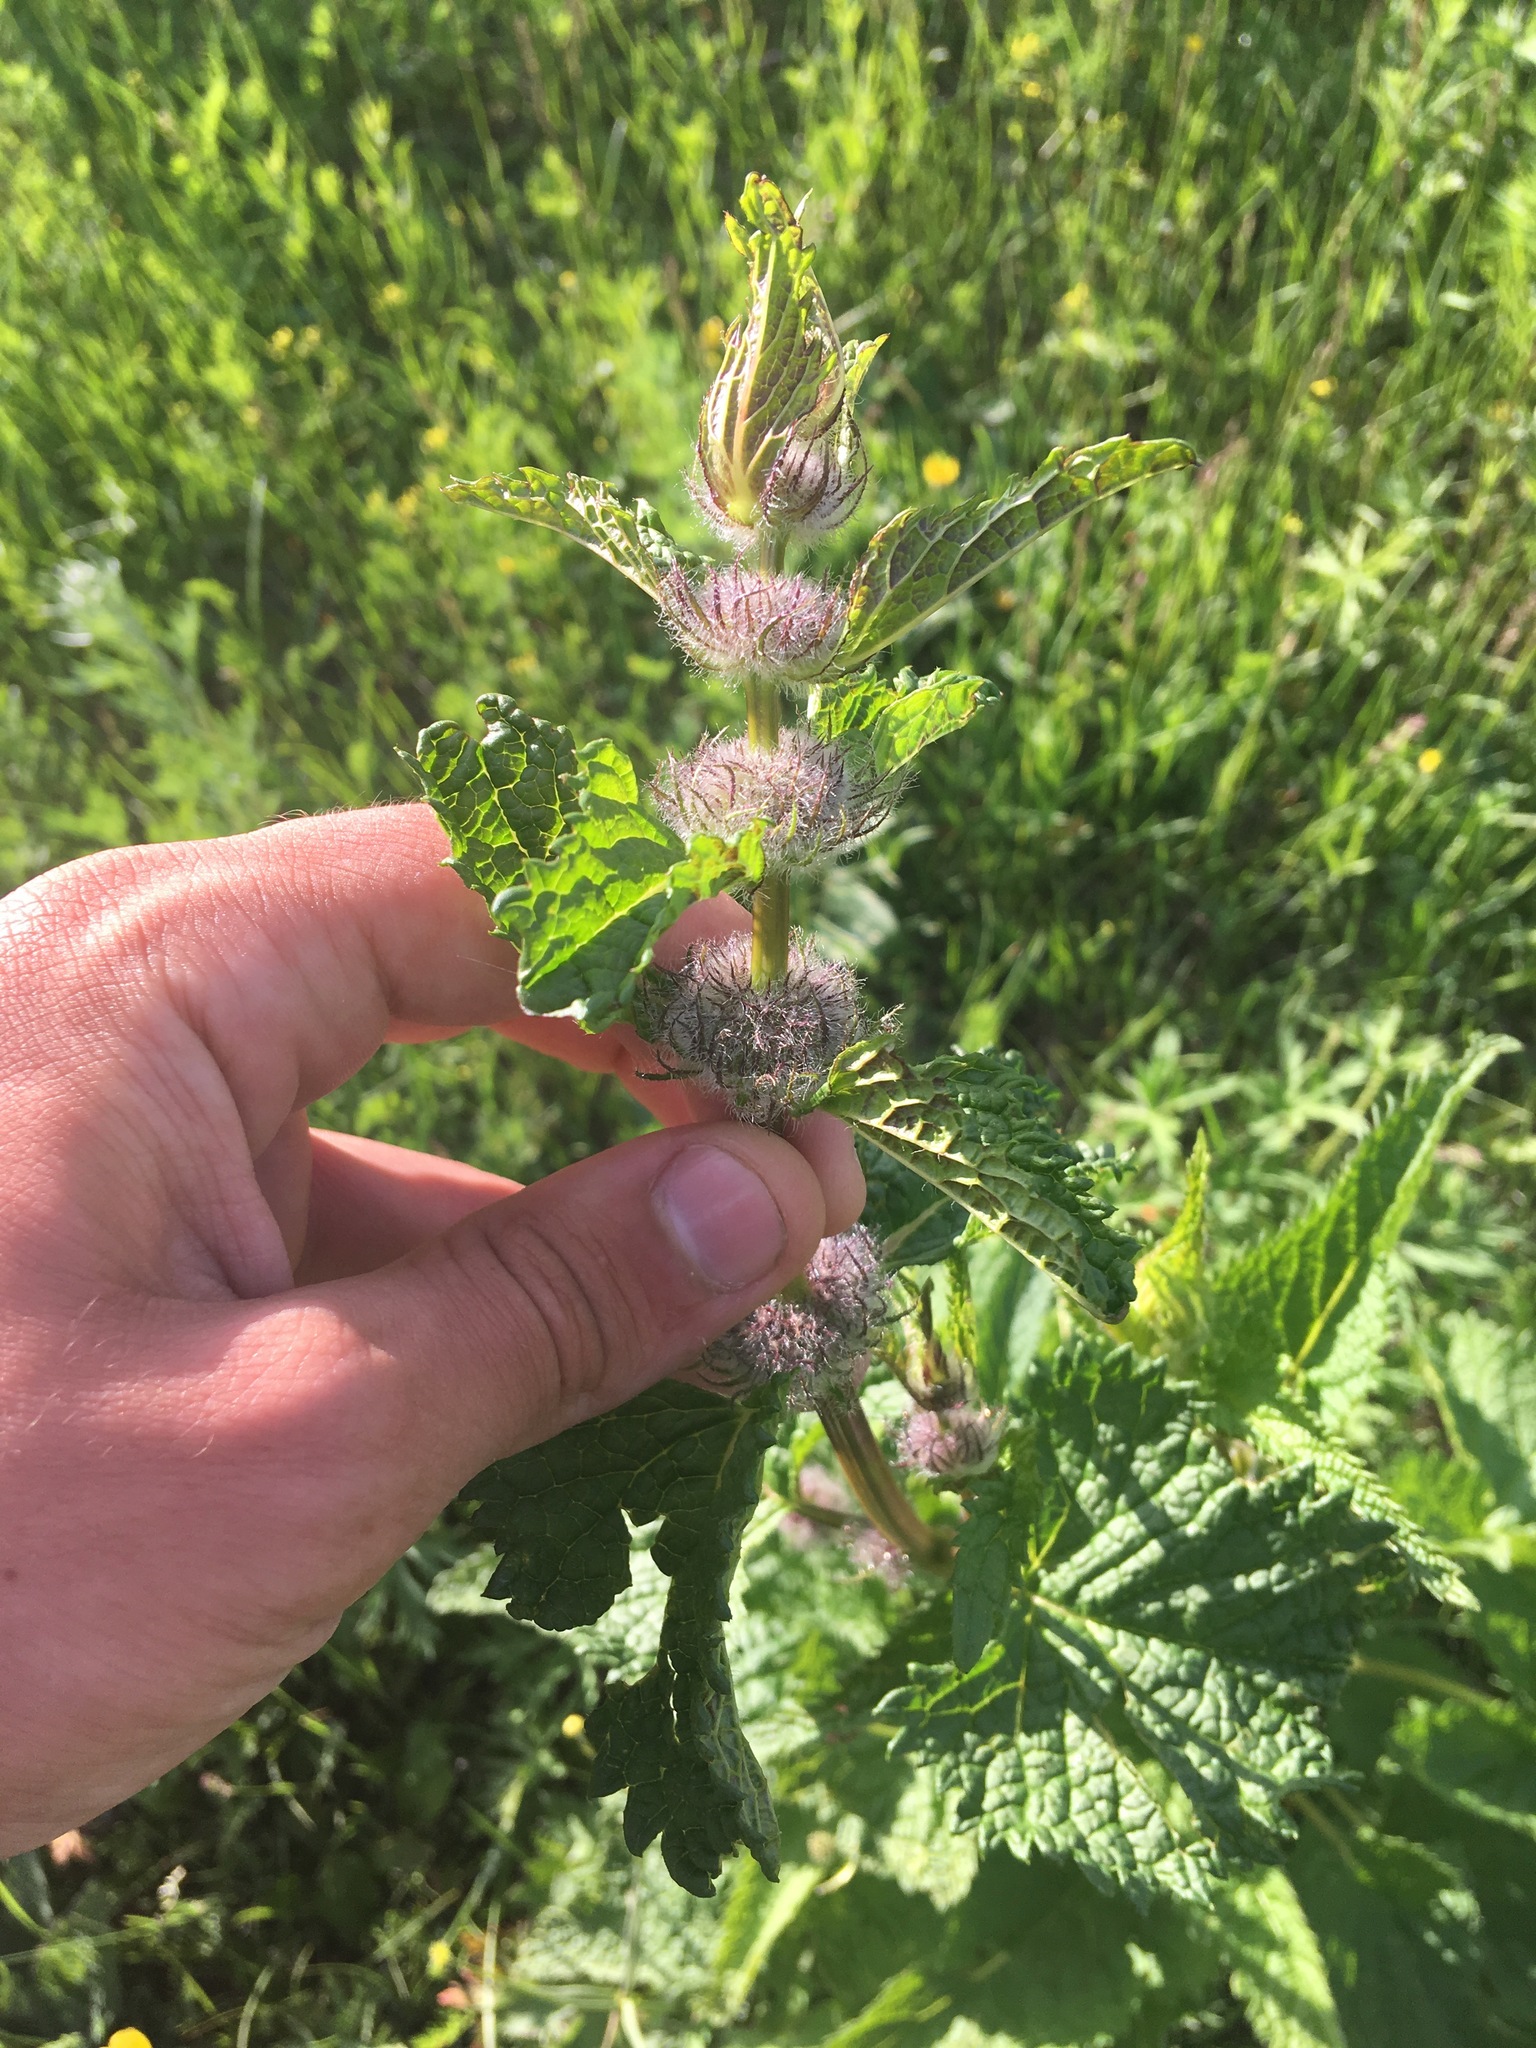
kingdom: Plantae
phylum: Tracheophyta
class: Magnoliopsida
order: Lamiales
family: Lamiaceae
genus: Phlomoides
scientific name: Phlomoides tuberosa
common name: Tuberous jerusalem sage
